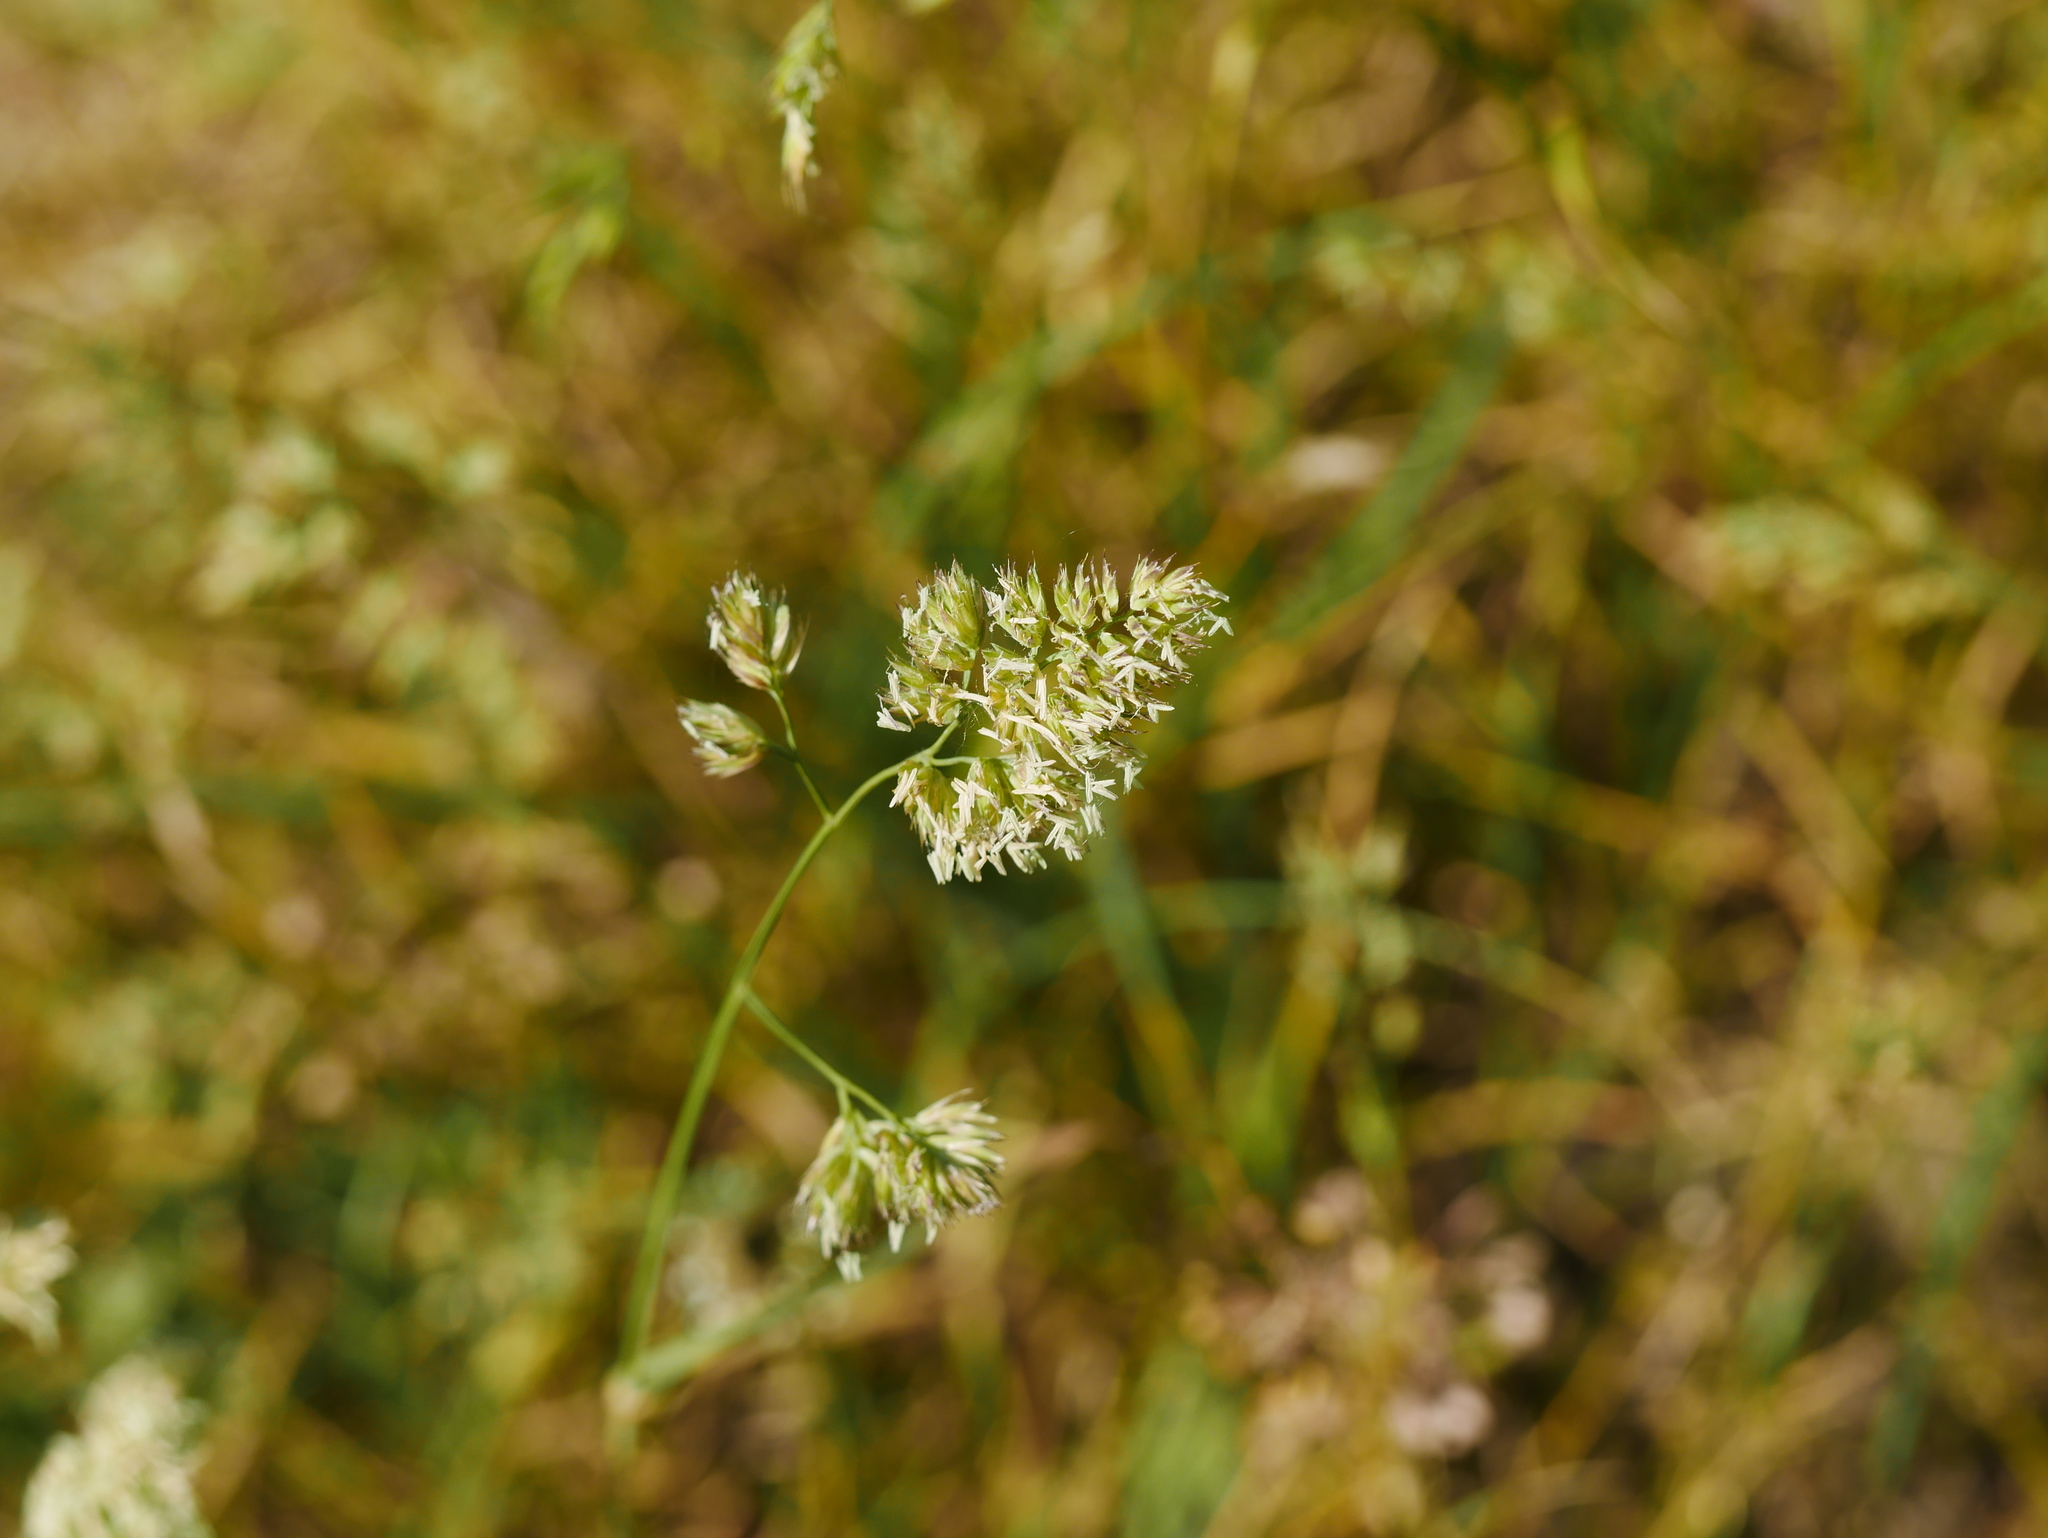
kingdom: Plantae
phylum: Tracheophyta
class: Liliopsida
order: Poales
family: Poaceae
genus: Dactylis
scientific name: Dactylis glomerata
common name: Orchardgrass
